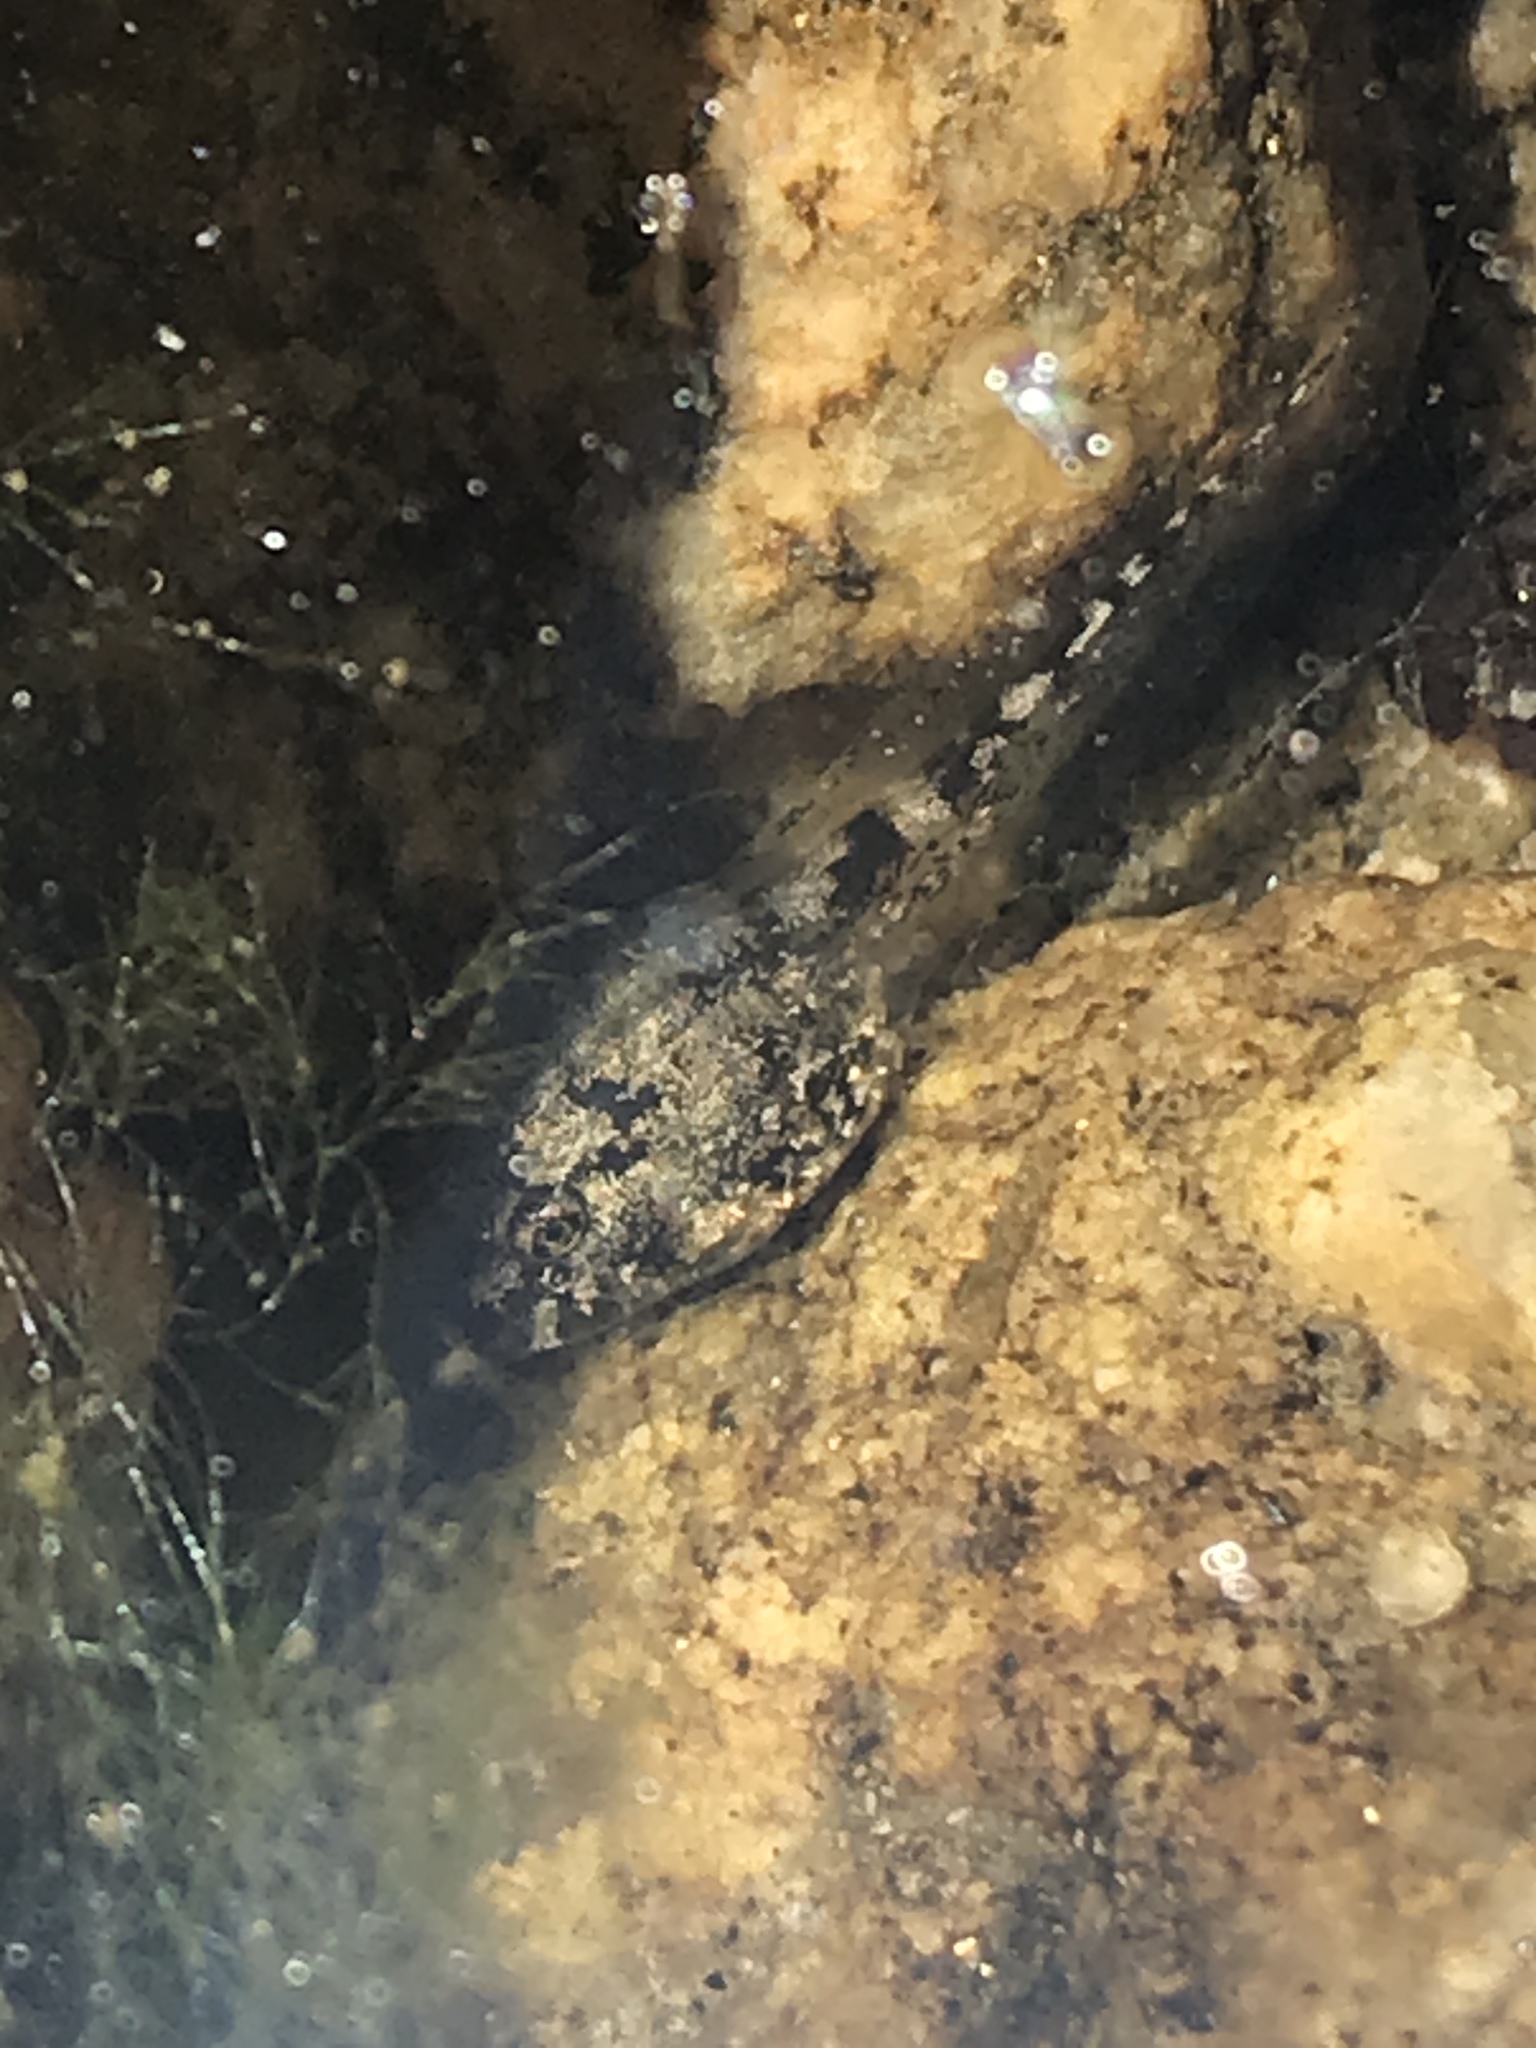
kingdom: Animalia
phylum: Chordata
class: Amphibia
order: Anura
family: Hylidae
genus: Pseudacris
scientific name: Pseudacris cadaverina
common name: California chorus frog
